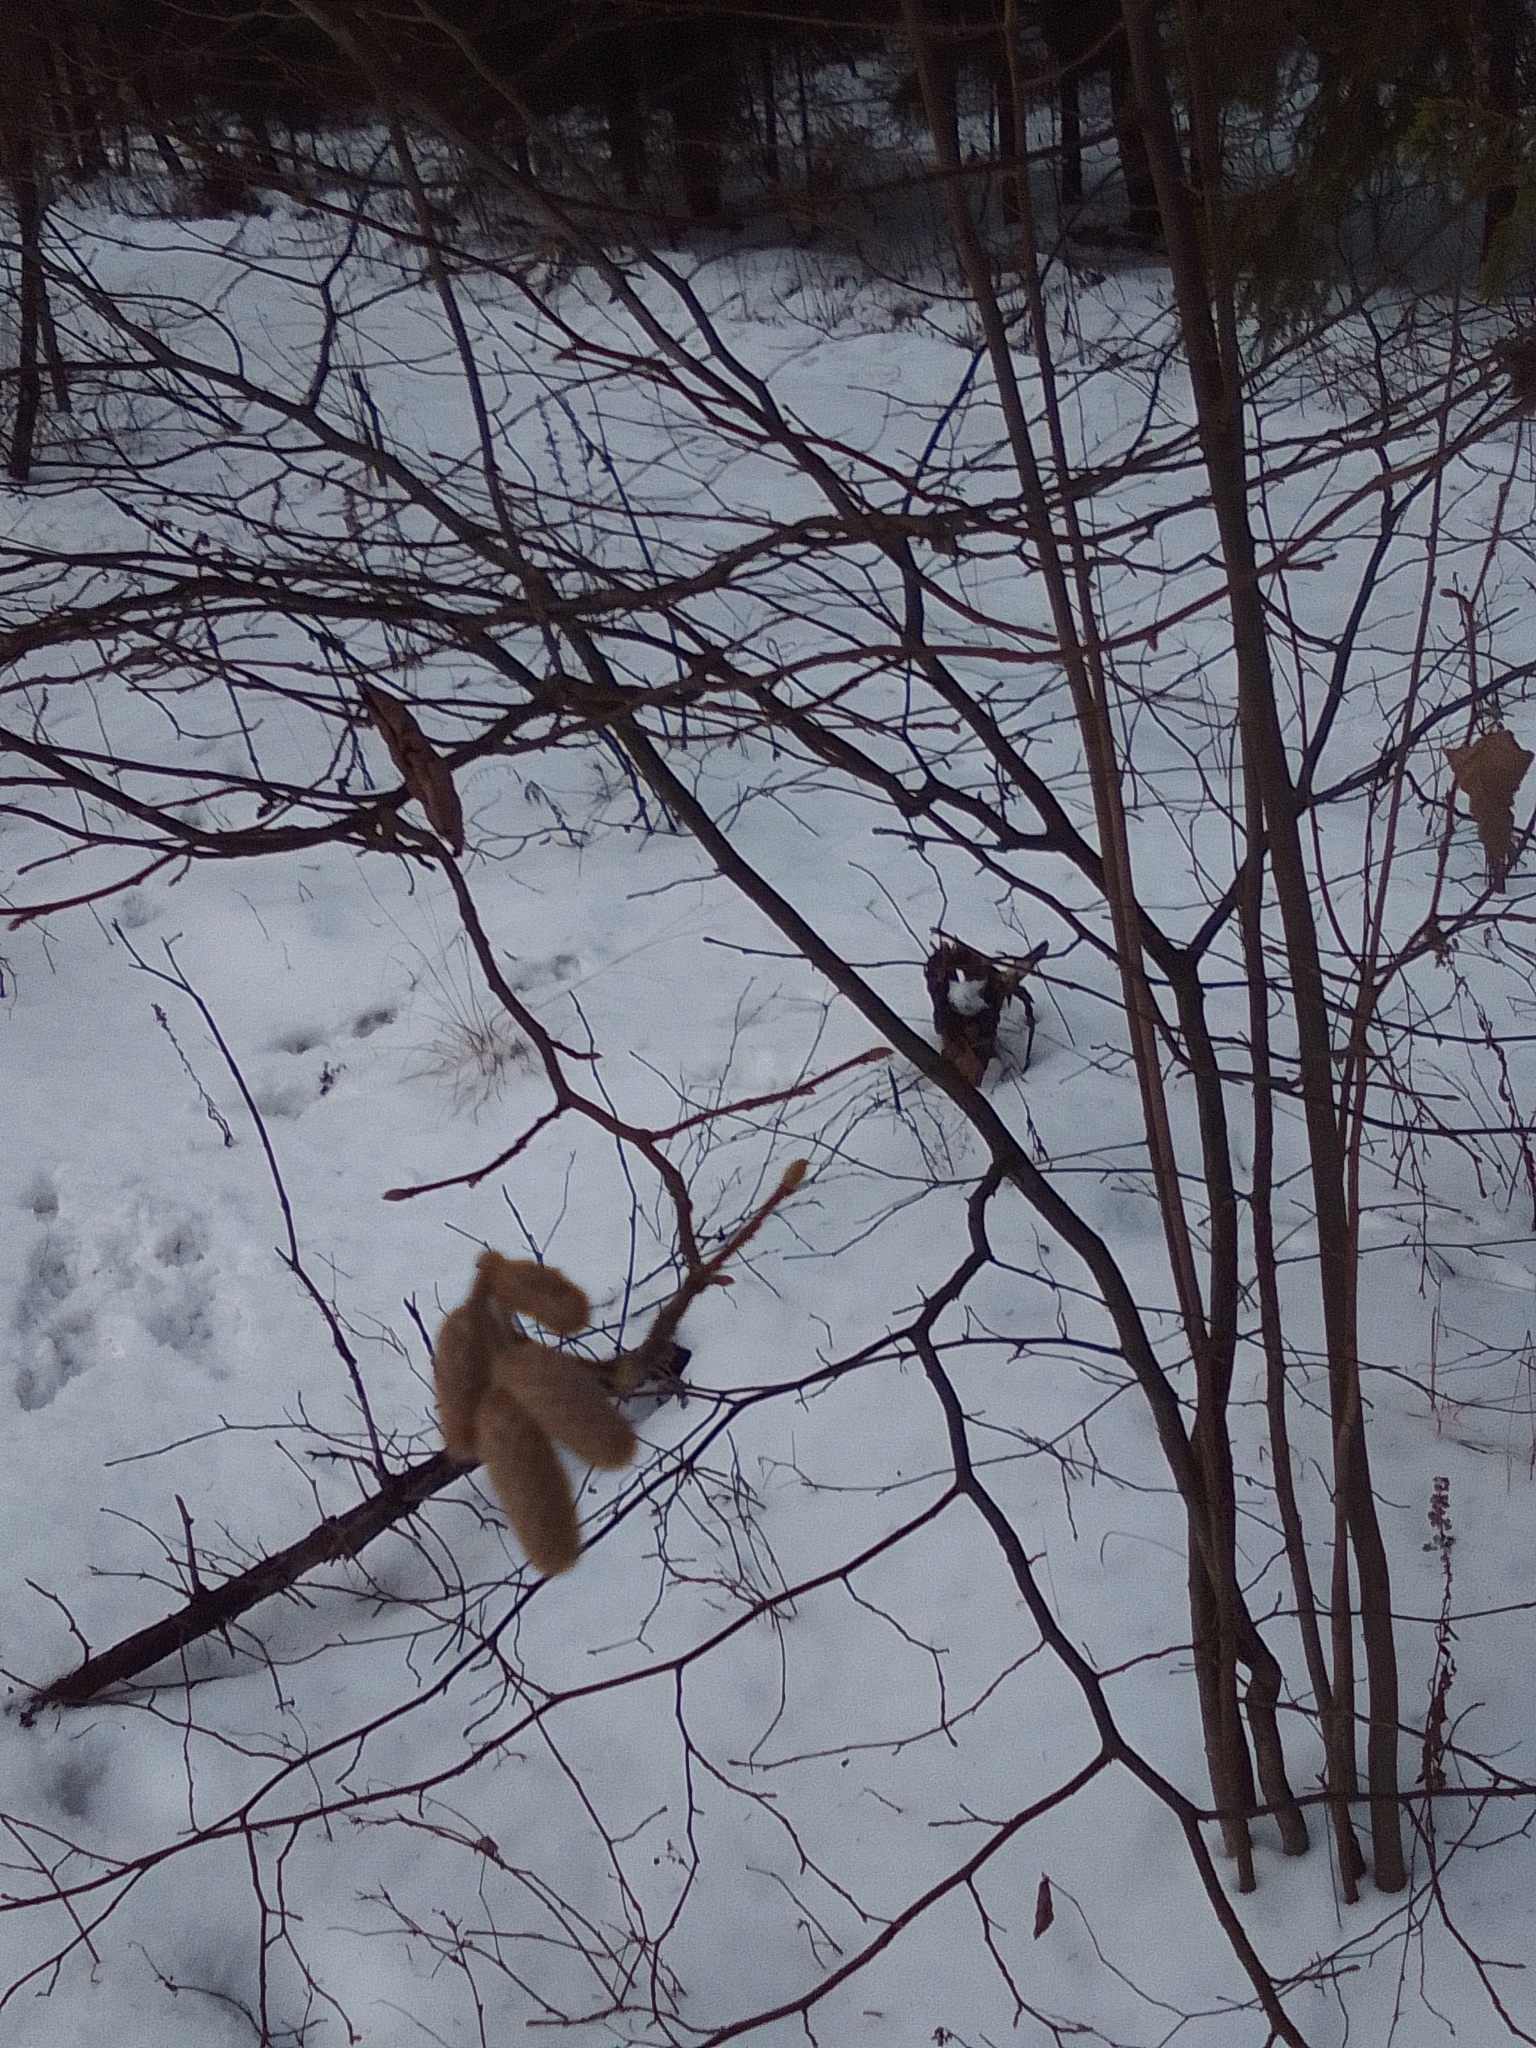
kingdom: Plantae
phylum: Tracheophyta
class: Magnoliopsida
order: Fagales
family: Betulaceae
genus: Corylus
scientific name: Corylus avellana
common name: European hazel
